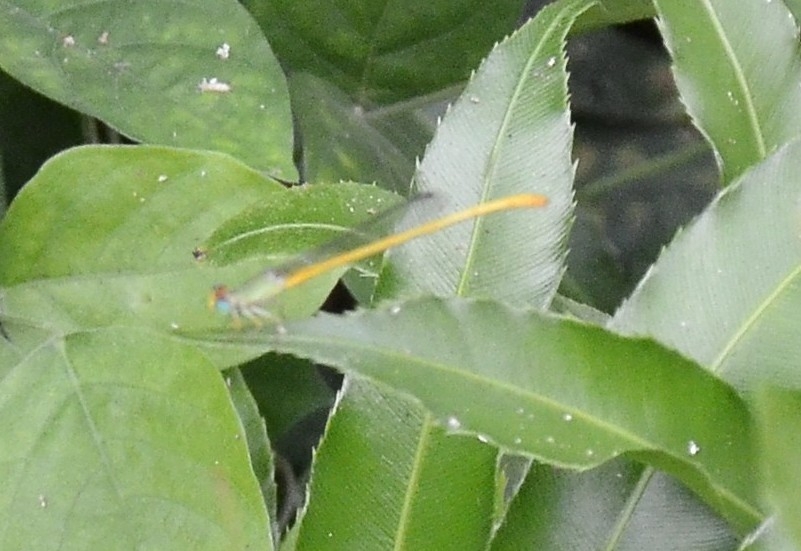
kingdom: Animalia
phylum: Arthropoda
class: Insecta
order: Odonata
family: Coenagrionidae
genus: Ceriagrion
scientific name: Ceriagrion coromandelianum
